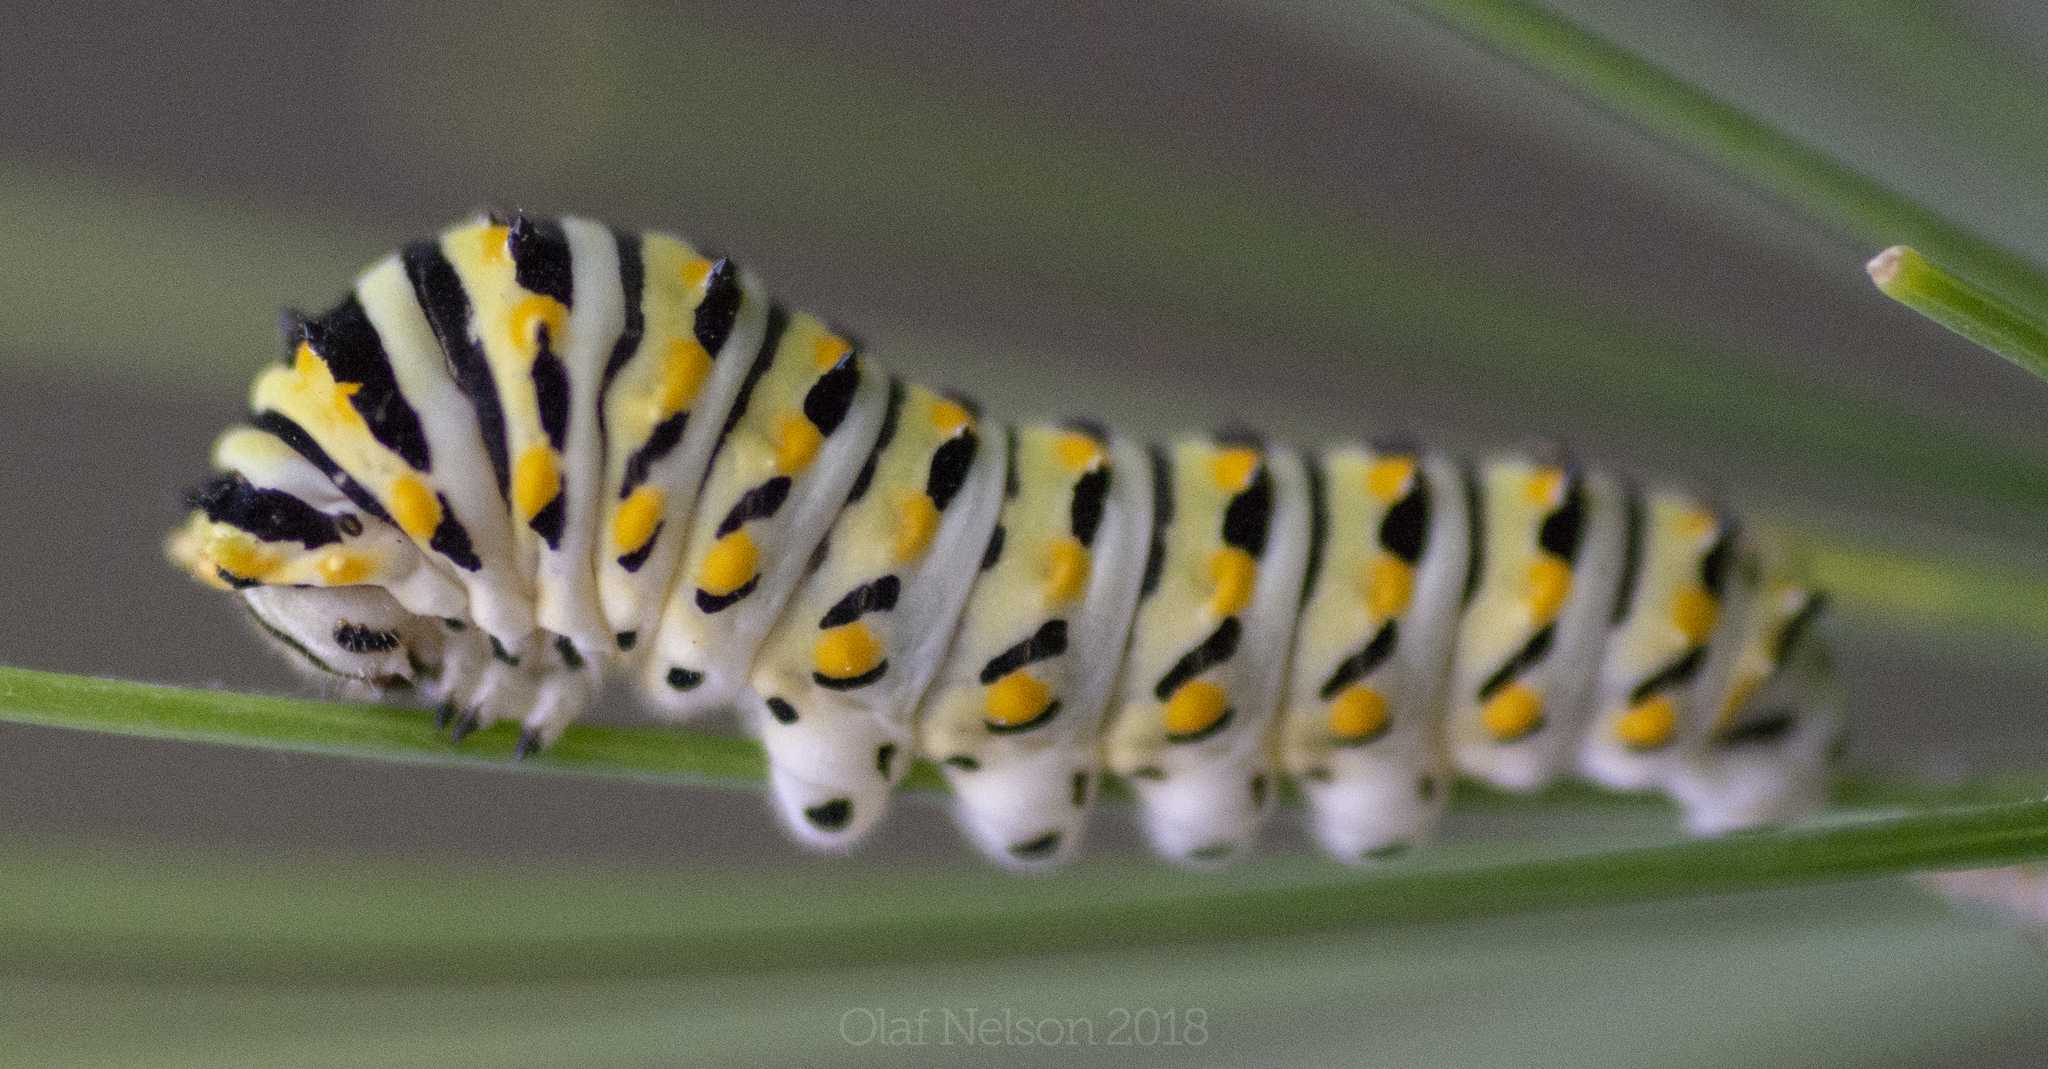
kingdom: Animalia
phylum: Arthropoda
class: Insecta
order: Lepidoptera
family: Papilionidae
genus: Papilio
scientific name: Papilio polyxenes
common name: Black swallowtail
